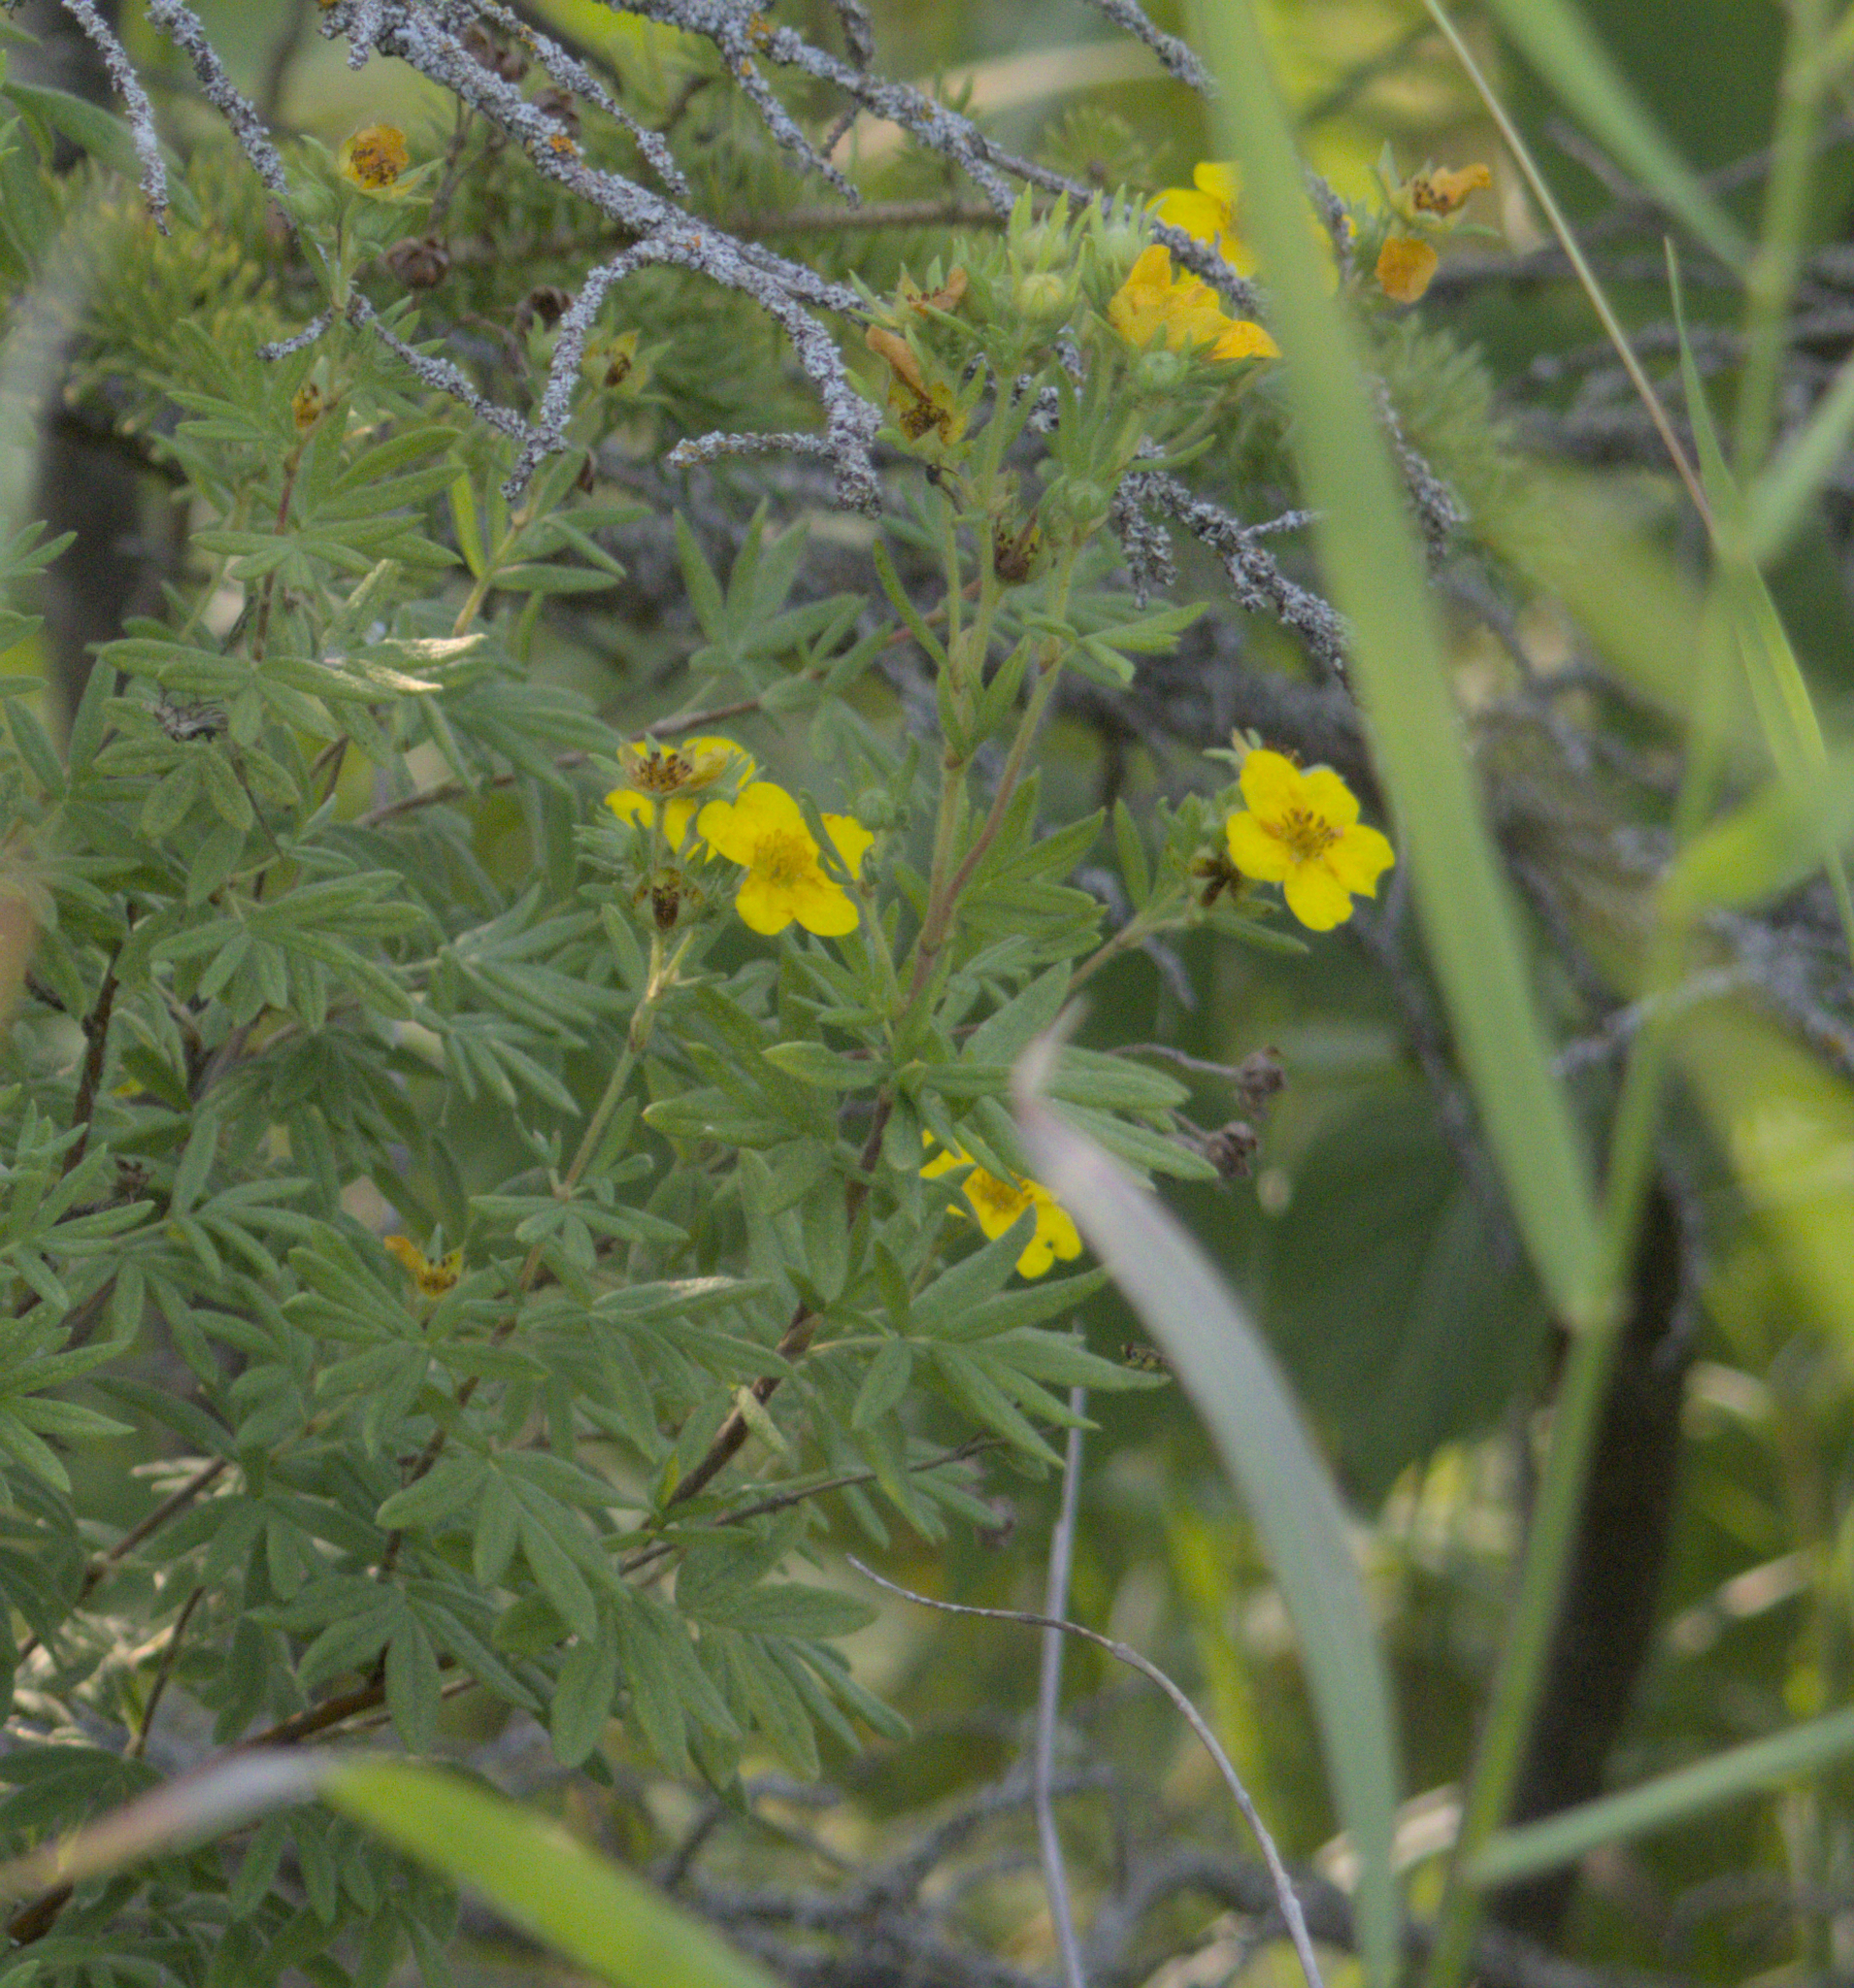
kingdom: Plantae
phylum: Tracheophyta
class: Magnoliopsida
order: Rosales
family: Rosaceae
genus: Dasiphora
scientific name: Dasiphora fruticosa
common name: Shrubby cinquefoil
